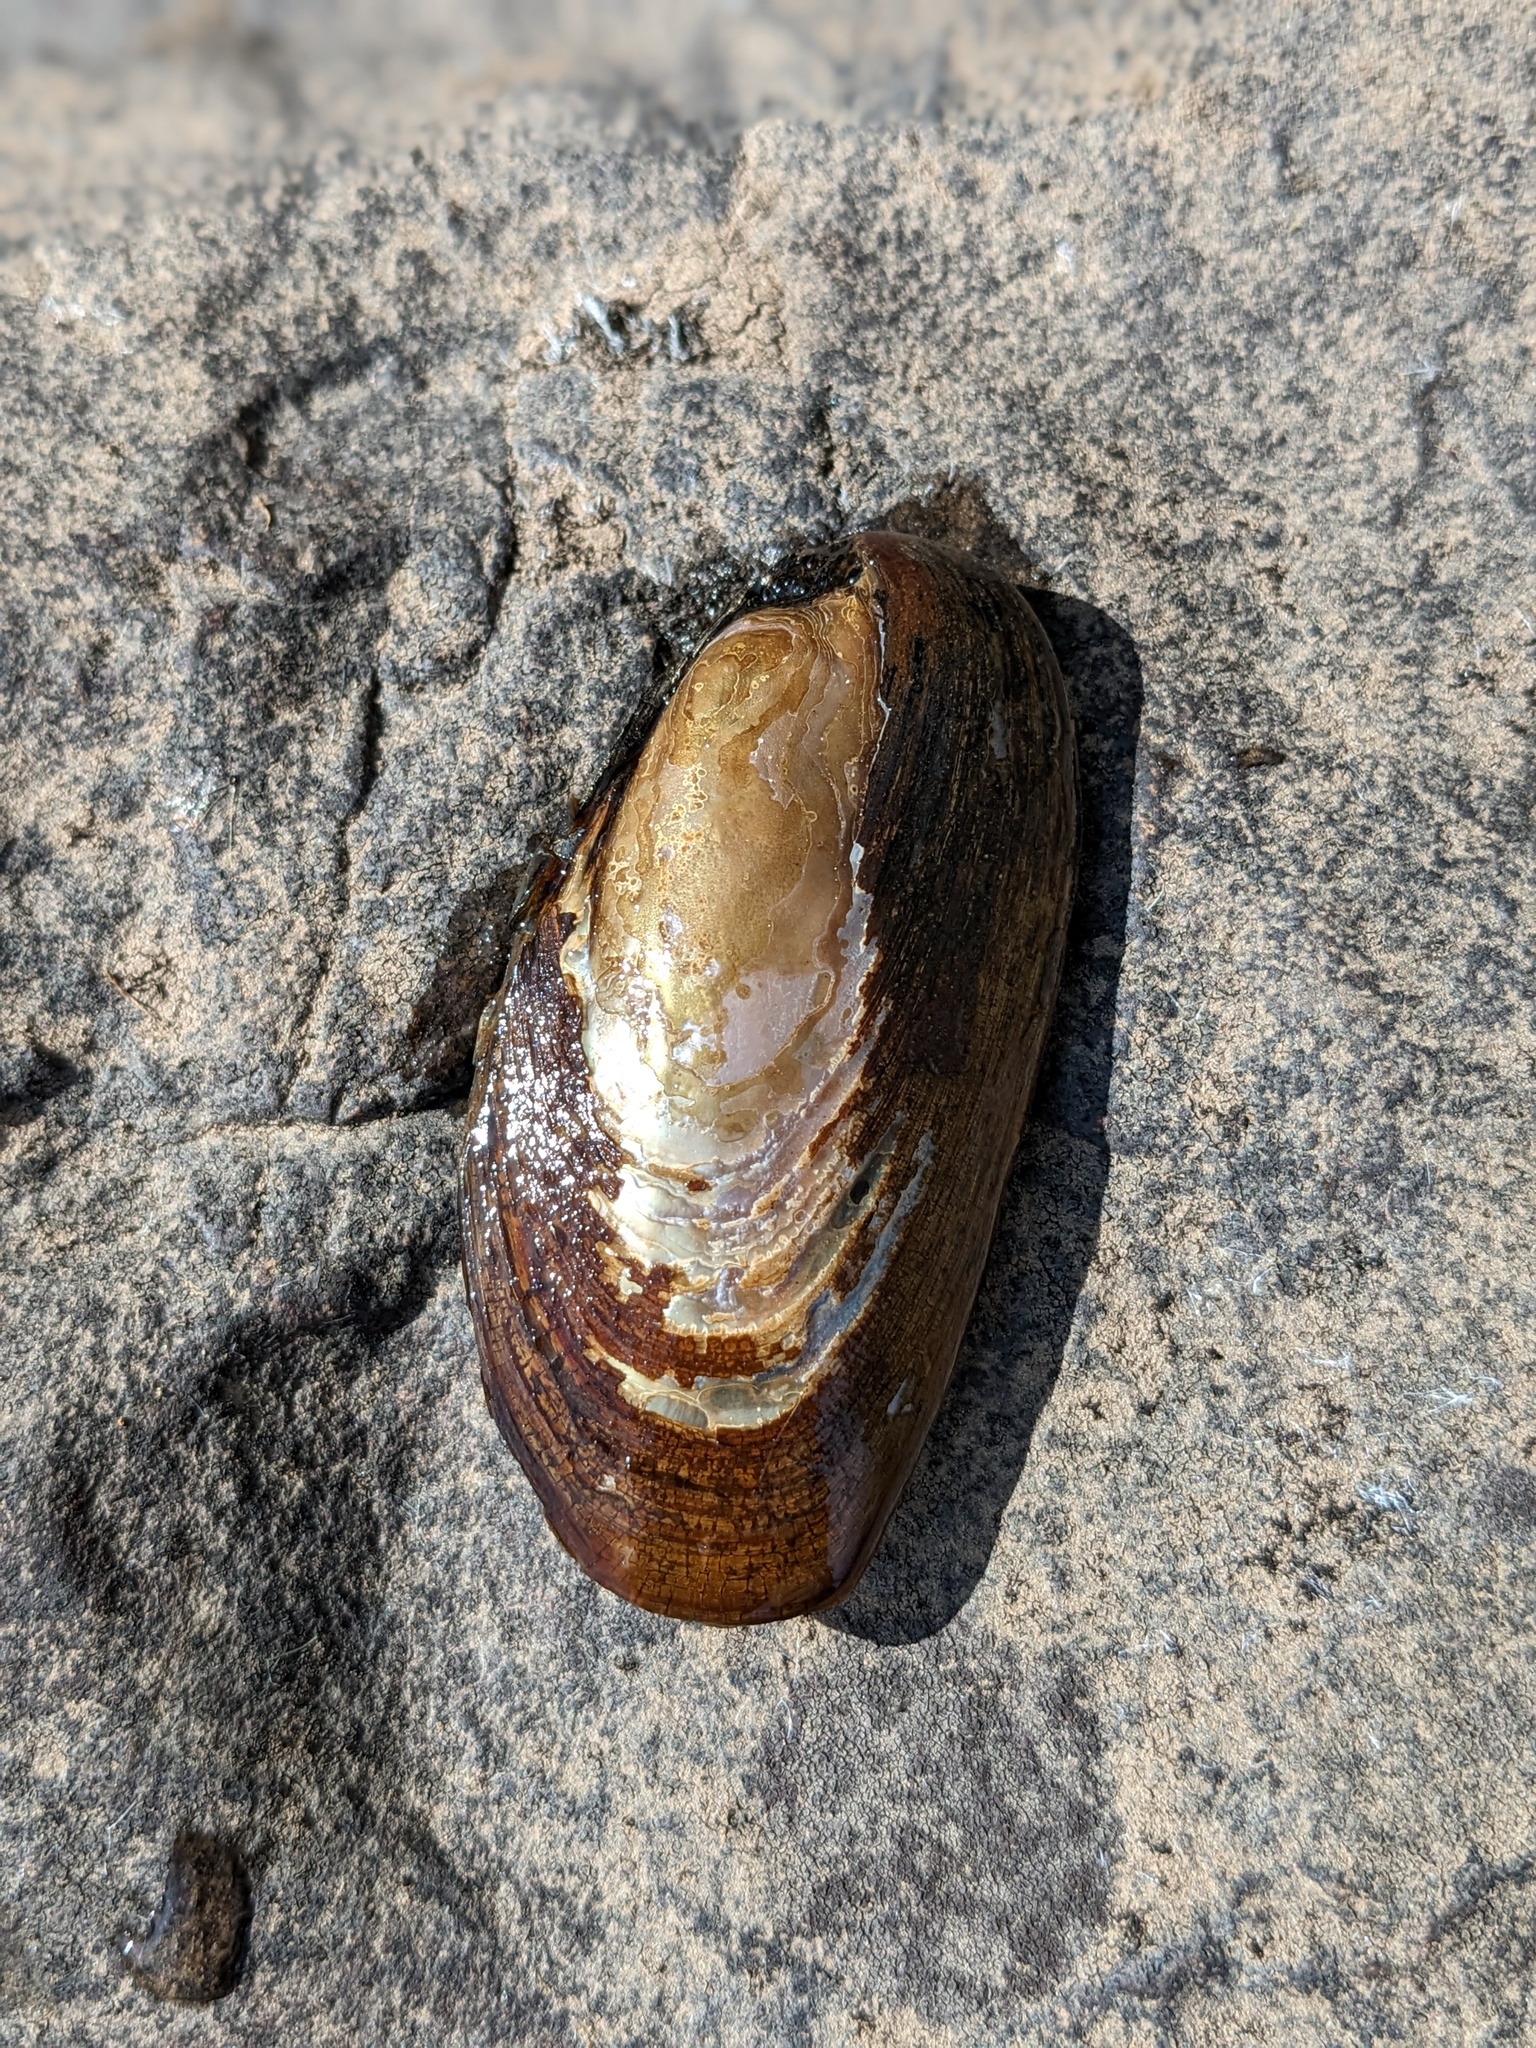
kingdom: Animalia
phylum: Mollusca
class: Bivalvia
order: Unionida
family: Unionidae
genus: Elliptio
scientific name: Elliptio complanata
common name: Eastern elliptio
